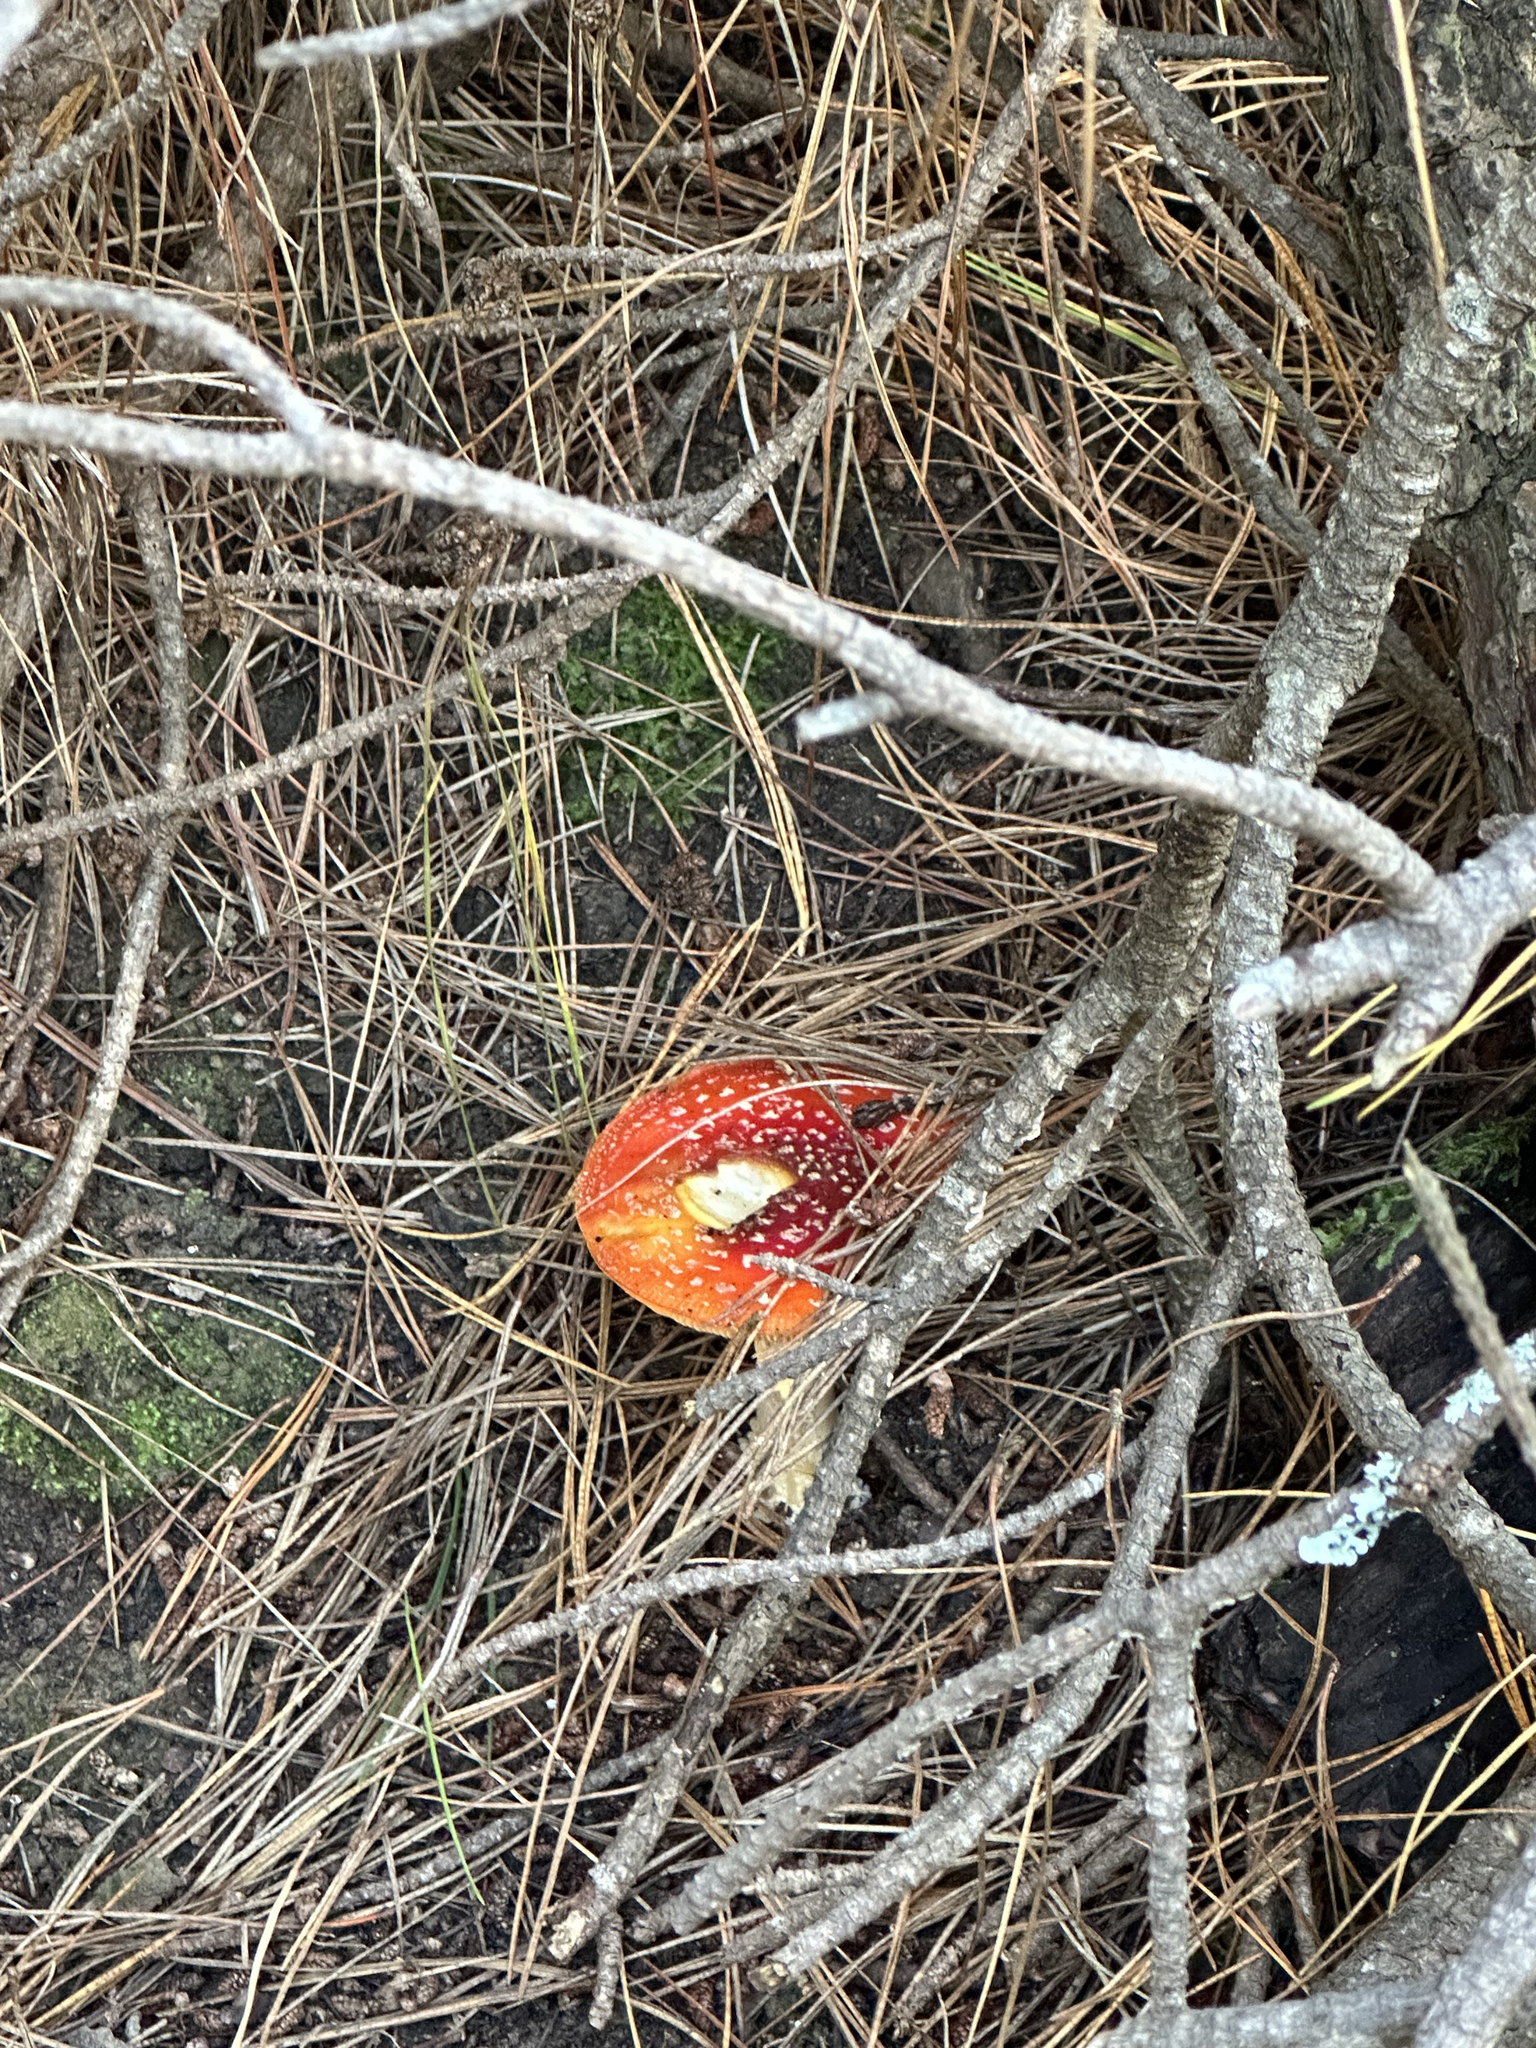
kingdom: Fungi
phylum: Basidiomycota
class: Agaricomycetes
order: Agaricales
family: Amanitaceae
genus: Amanita
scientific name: Amanita muscaria
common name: Fly agaric
